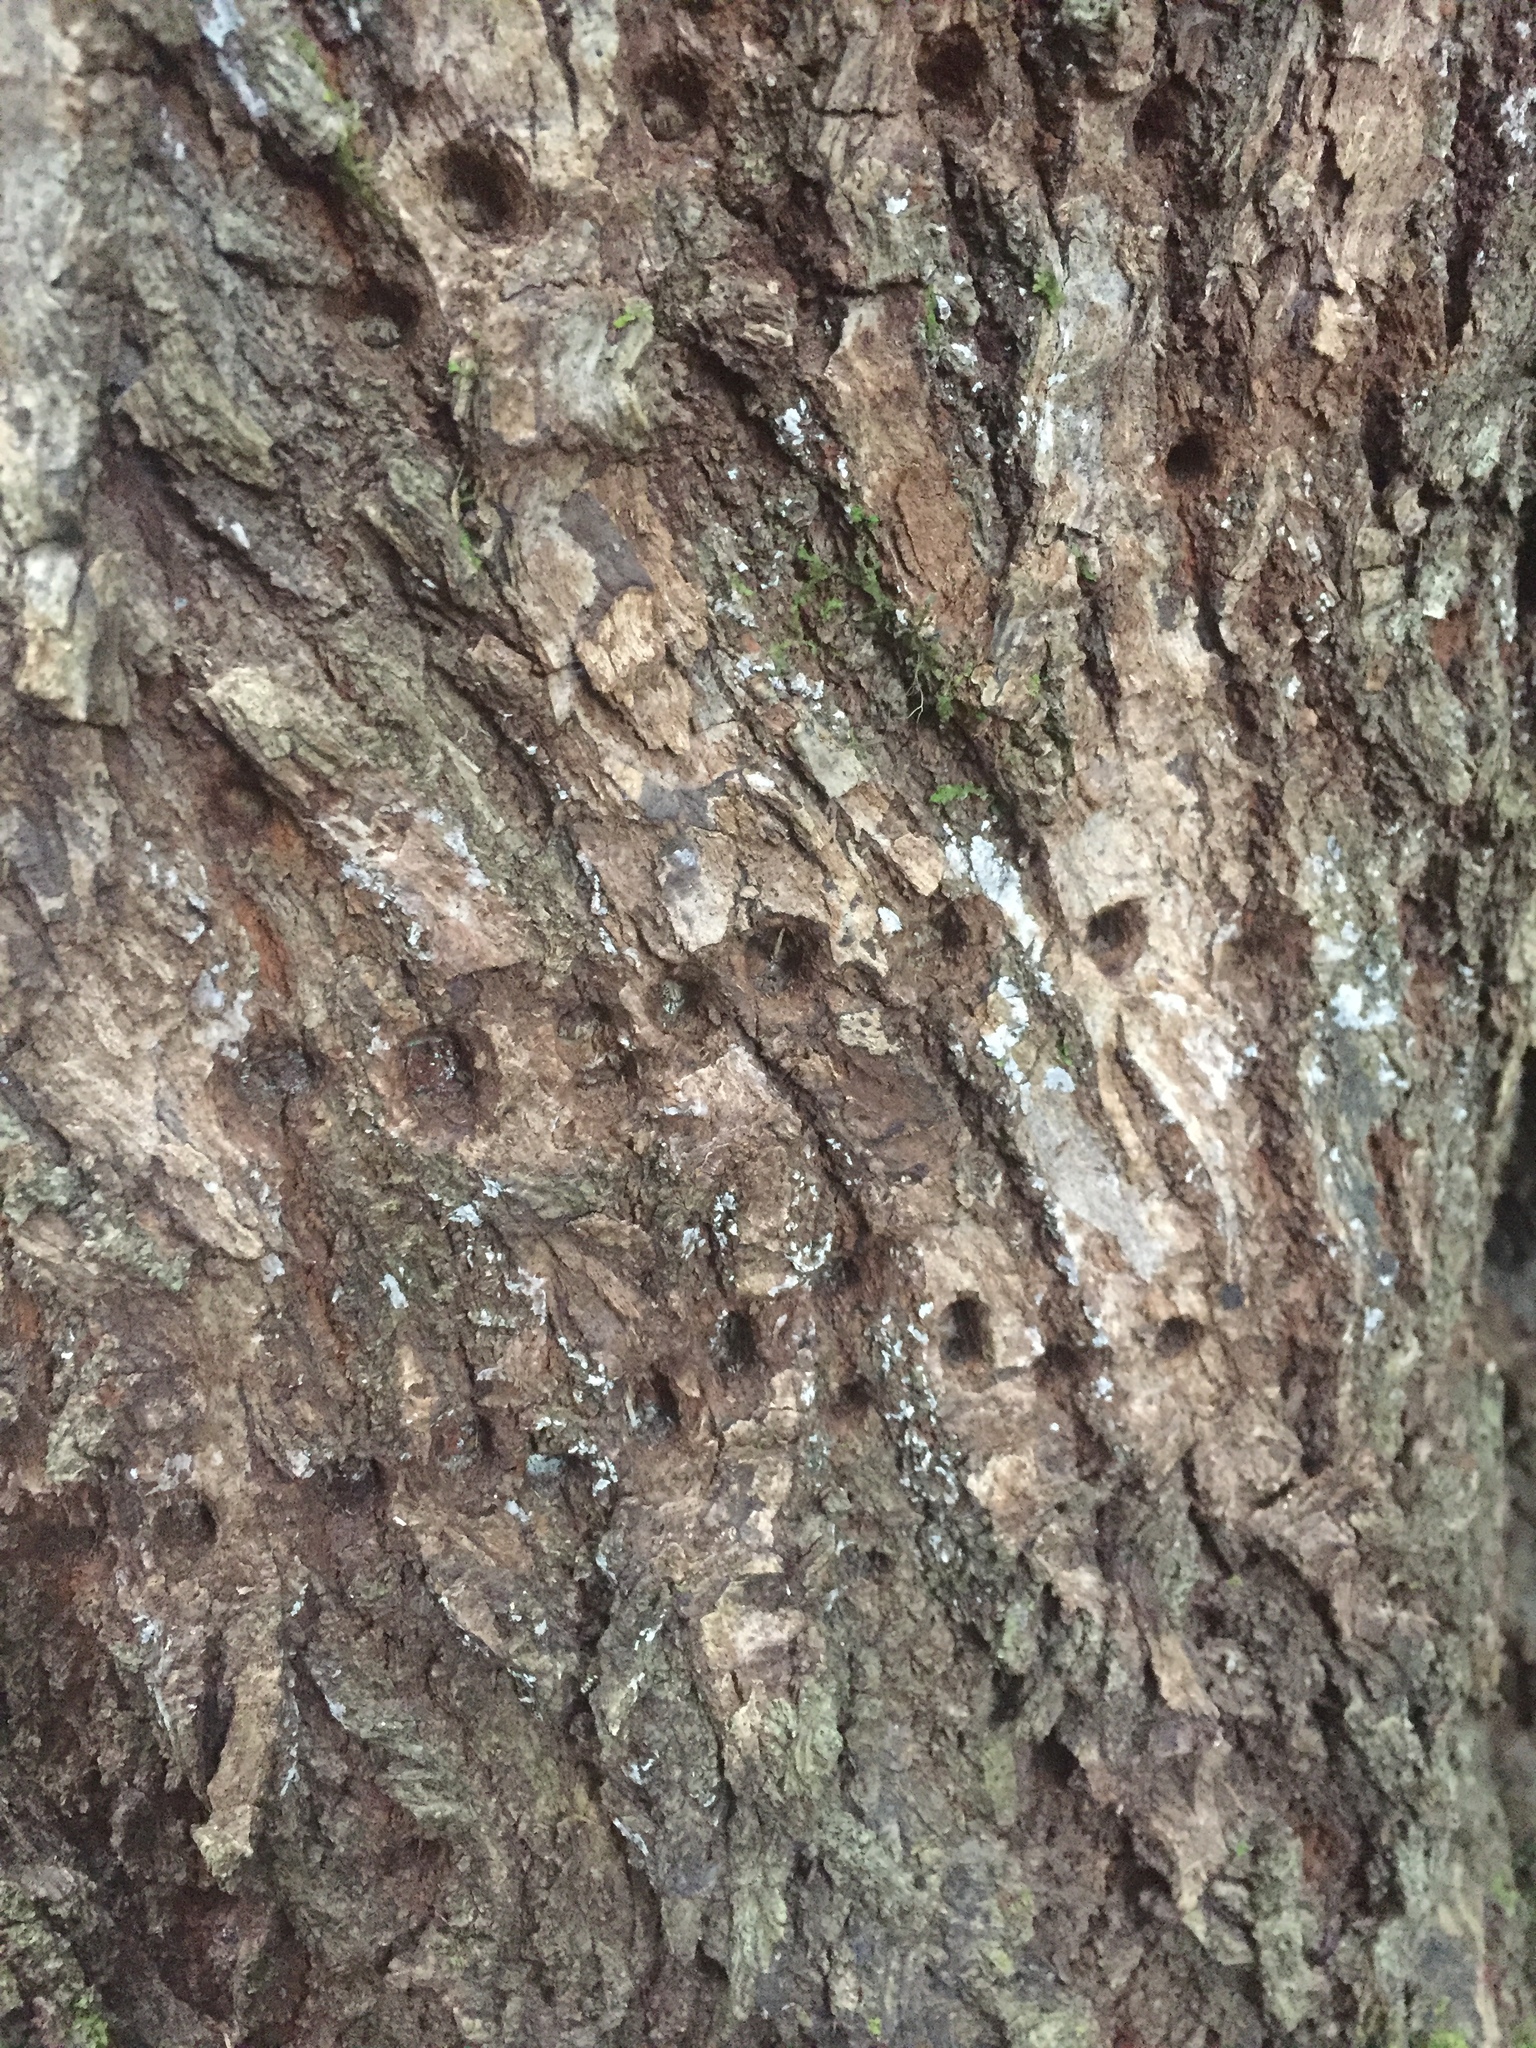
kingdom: Animalia
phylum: Chordata
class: Aves
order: Piciformes
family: Picidae
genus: Sphyrapicus
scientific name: Sphyrapicus
